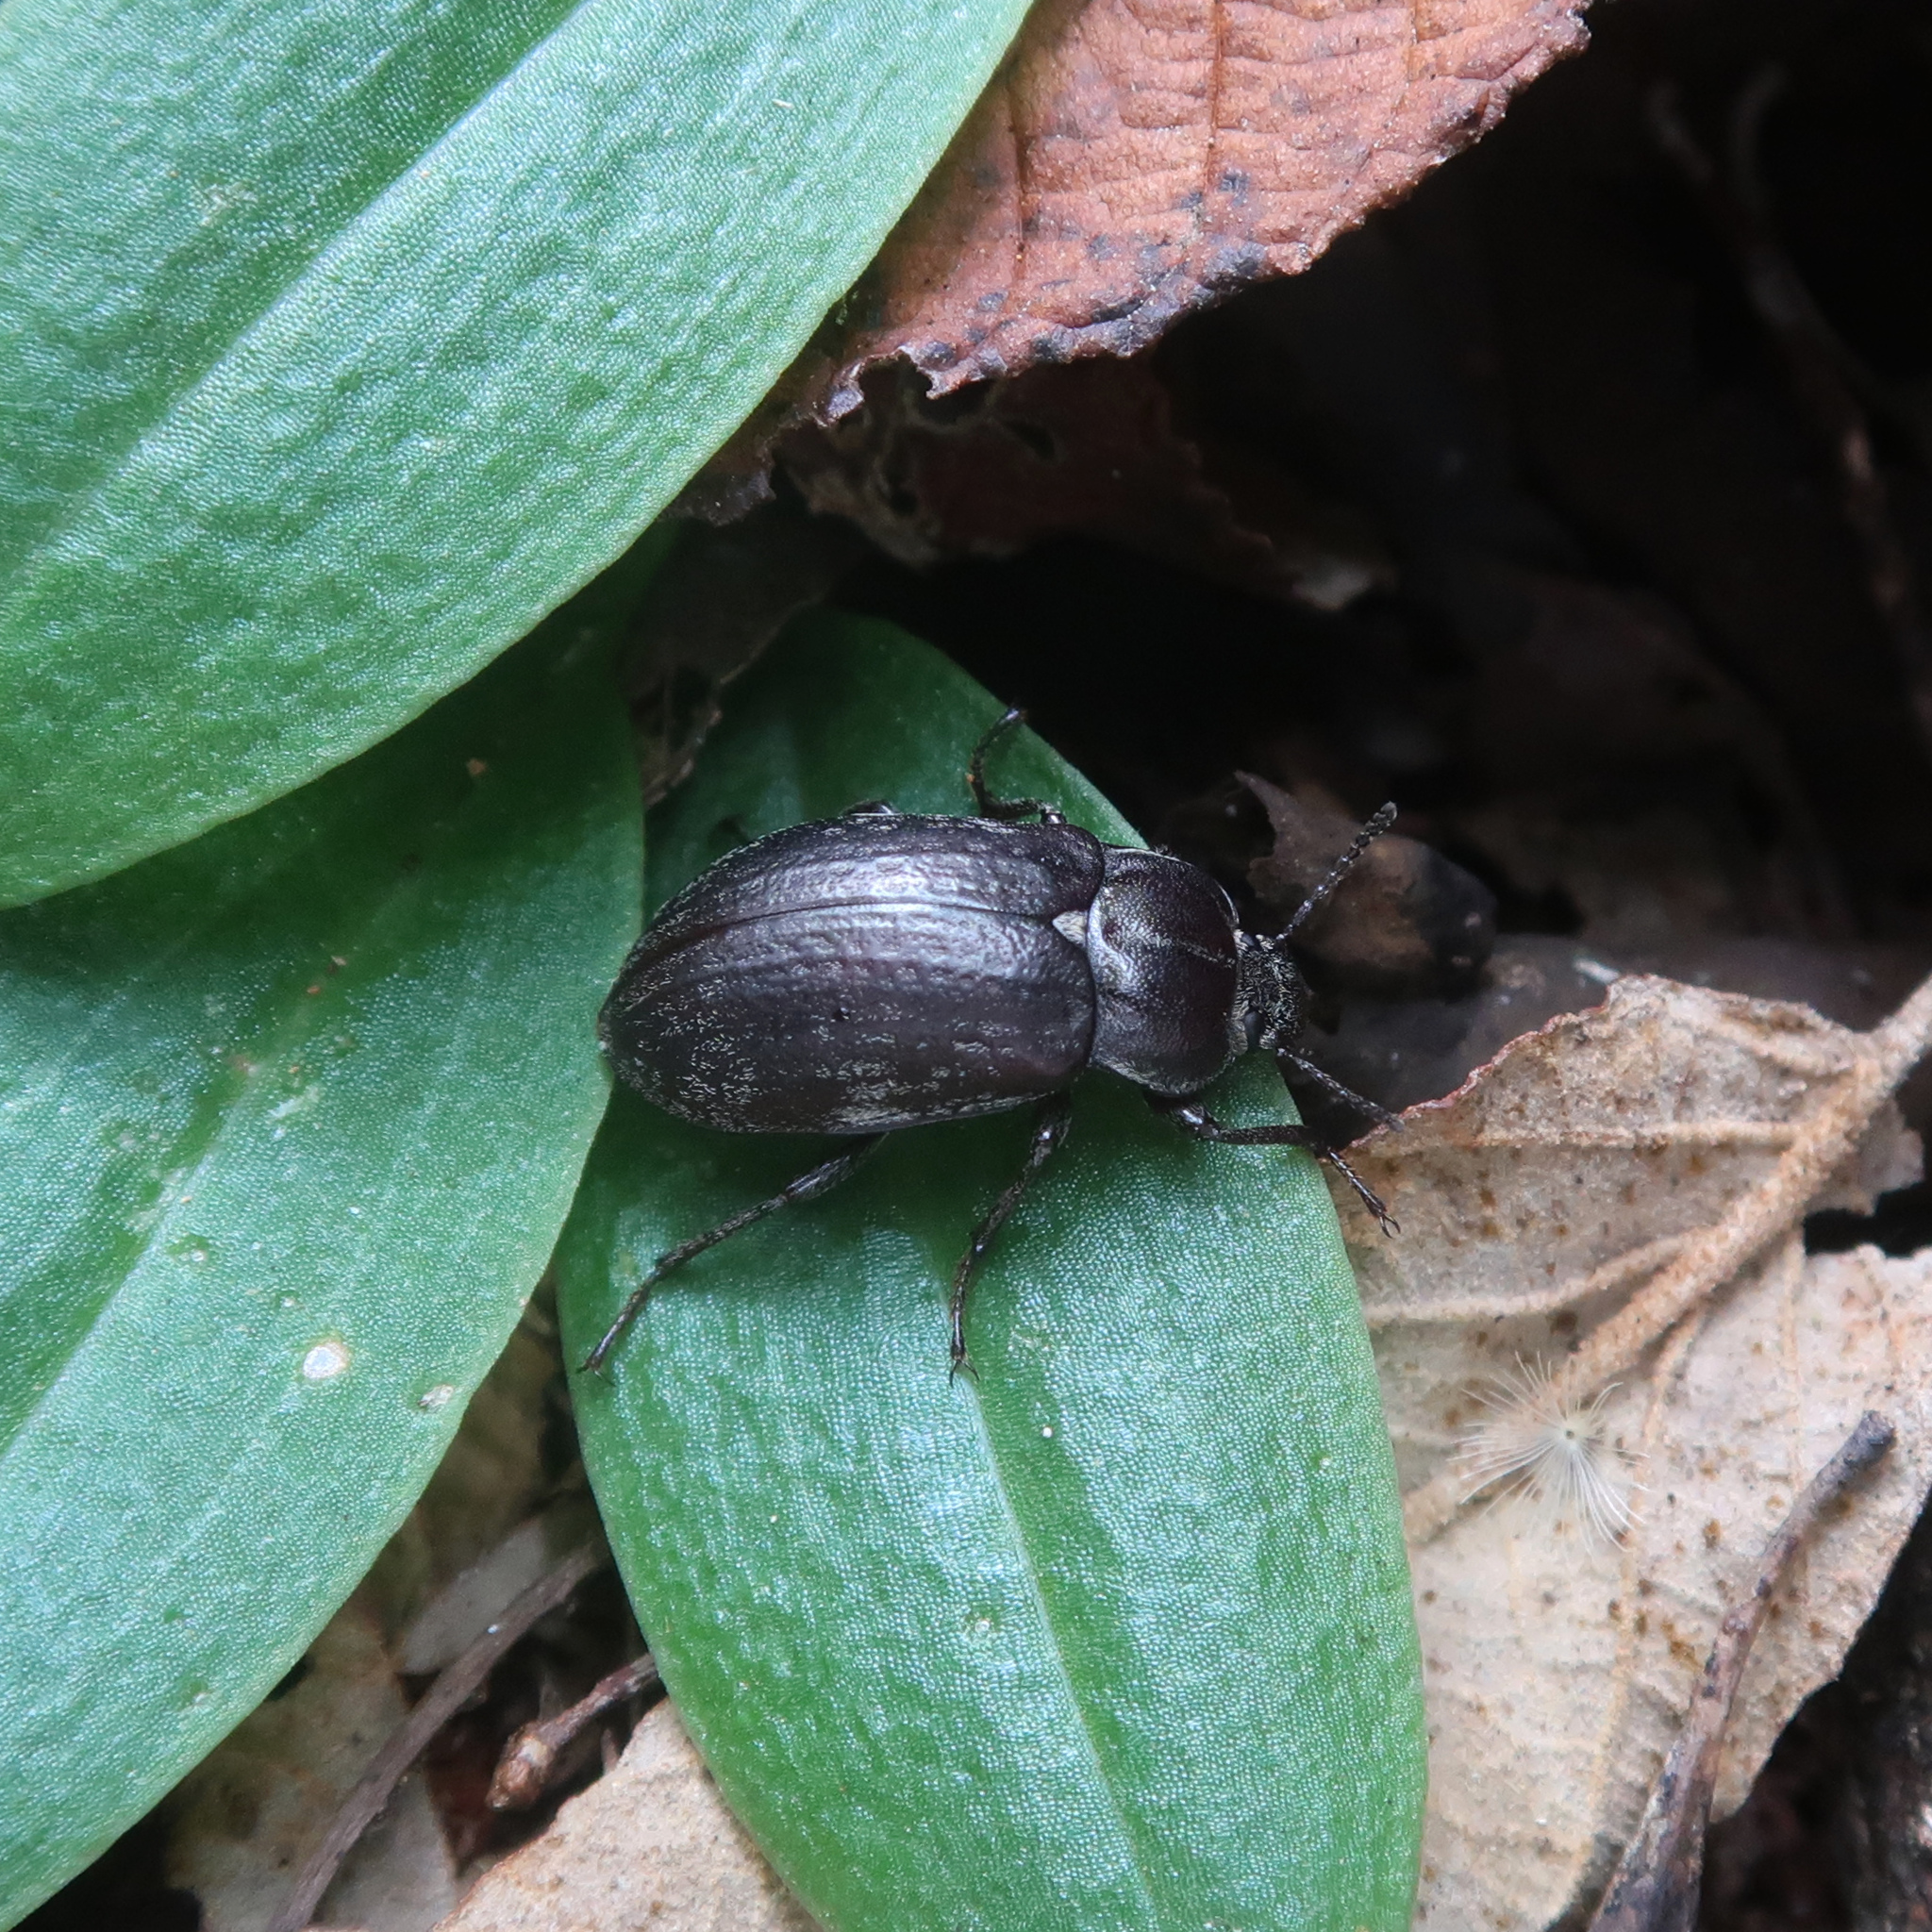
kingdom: Animalia
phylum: Arthropoda
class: Insecta
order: Coleoptera
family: Tenebrionidae
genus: Pachycoelia
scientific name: Pachycoelia
